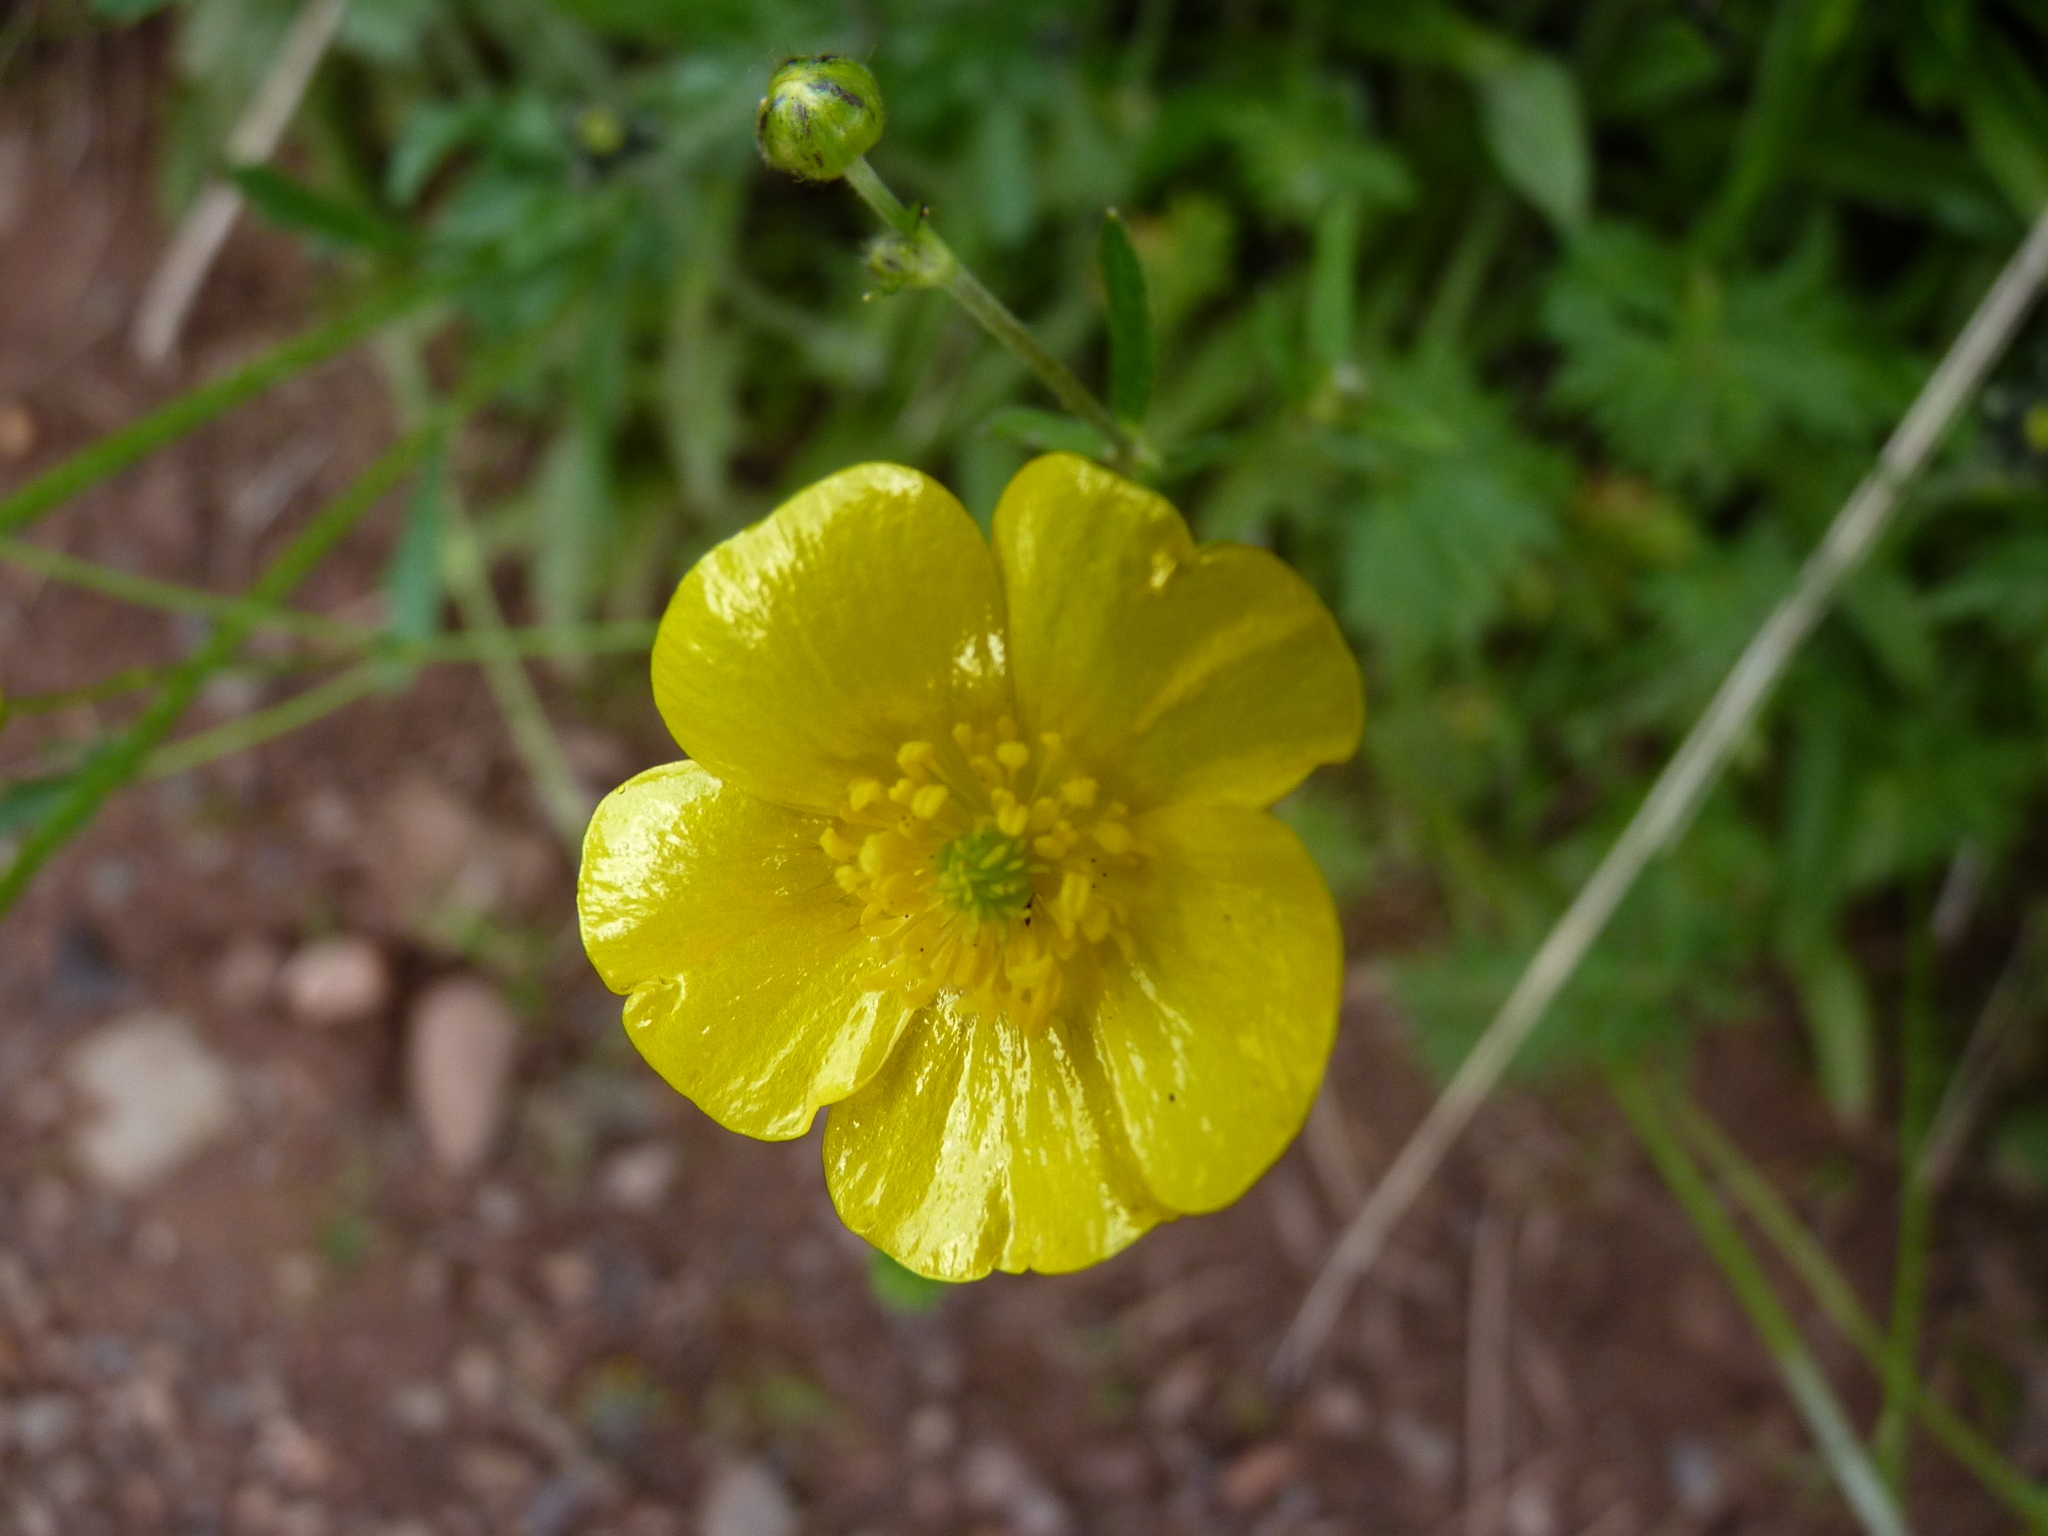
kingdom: Plantae
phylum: Tracheophyta
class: Magnoliopsida
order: Ranunculales
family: Ranunculaceae
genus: Ranunculus
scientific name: Ranunculus acris
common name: Meadow buttercup
